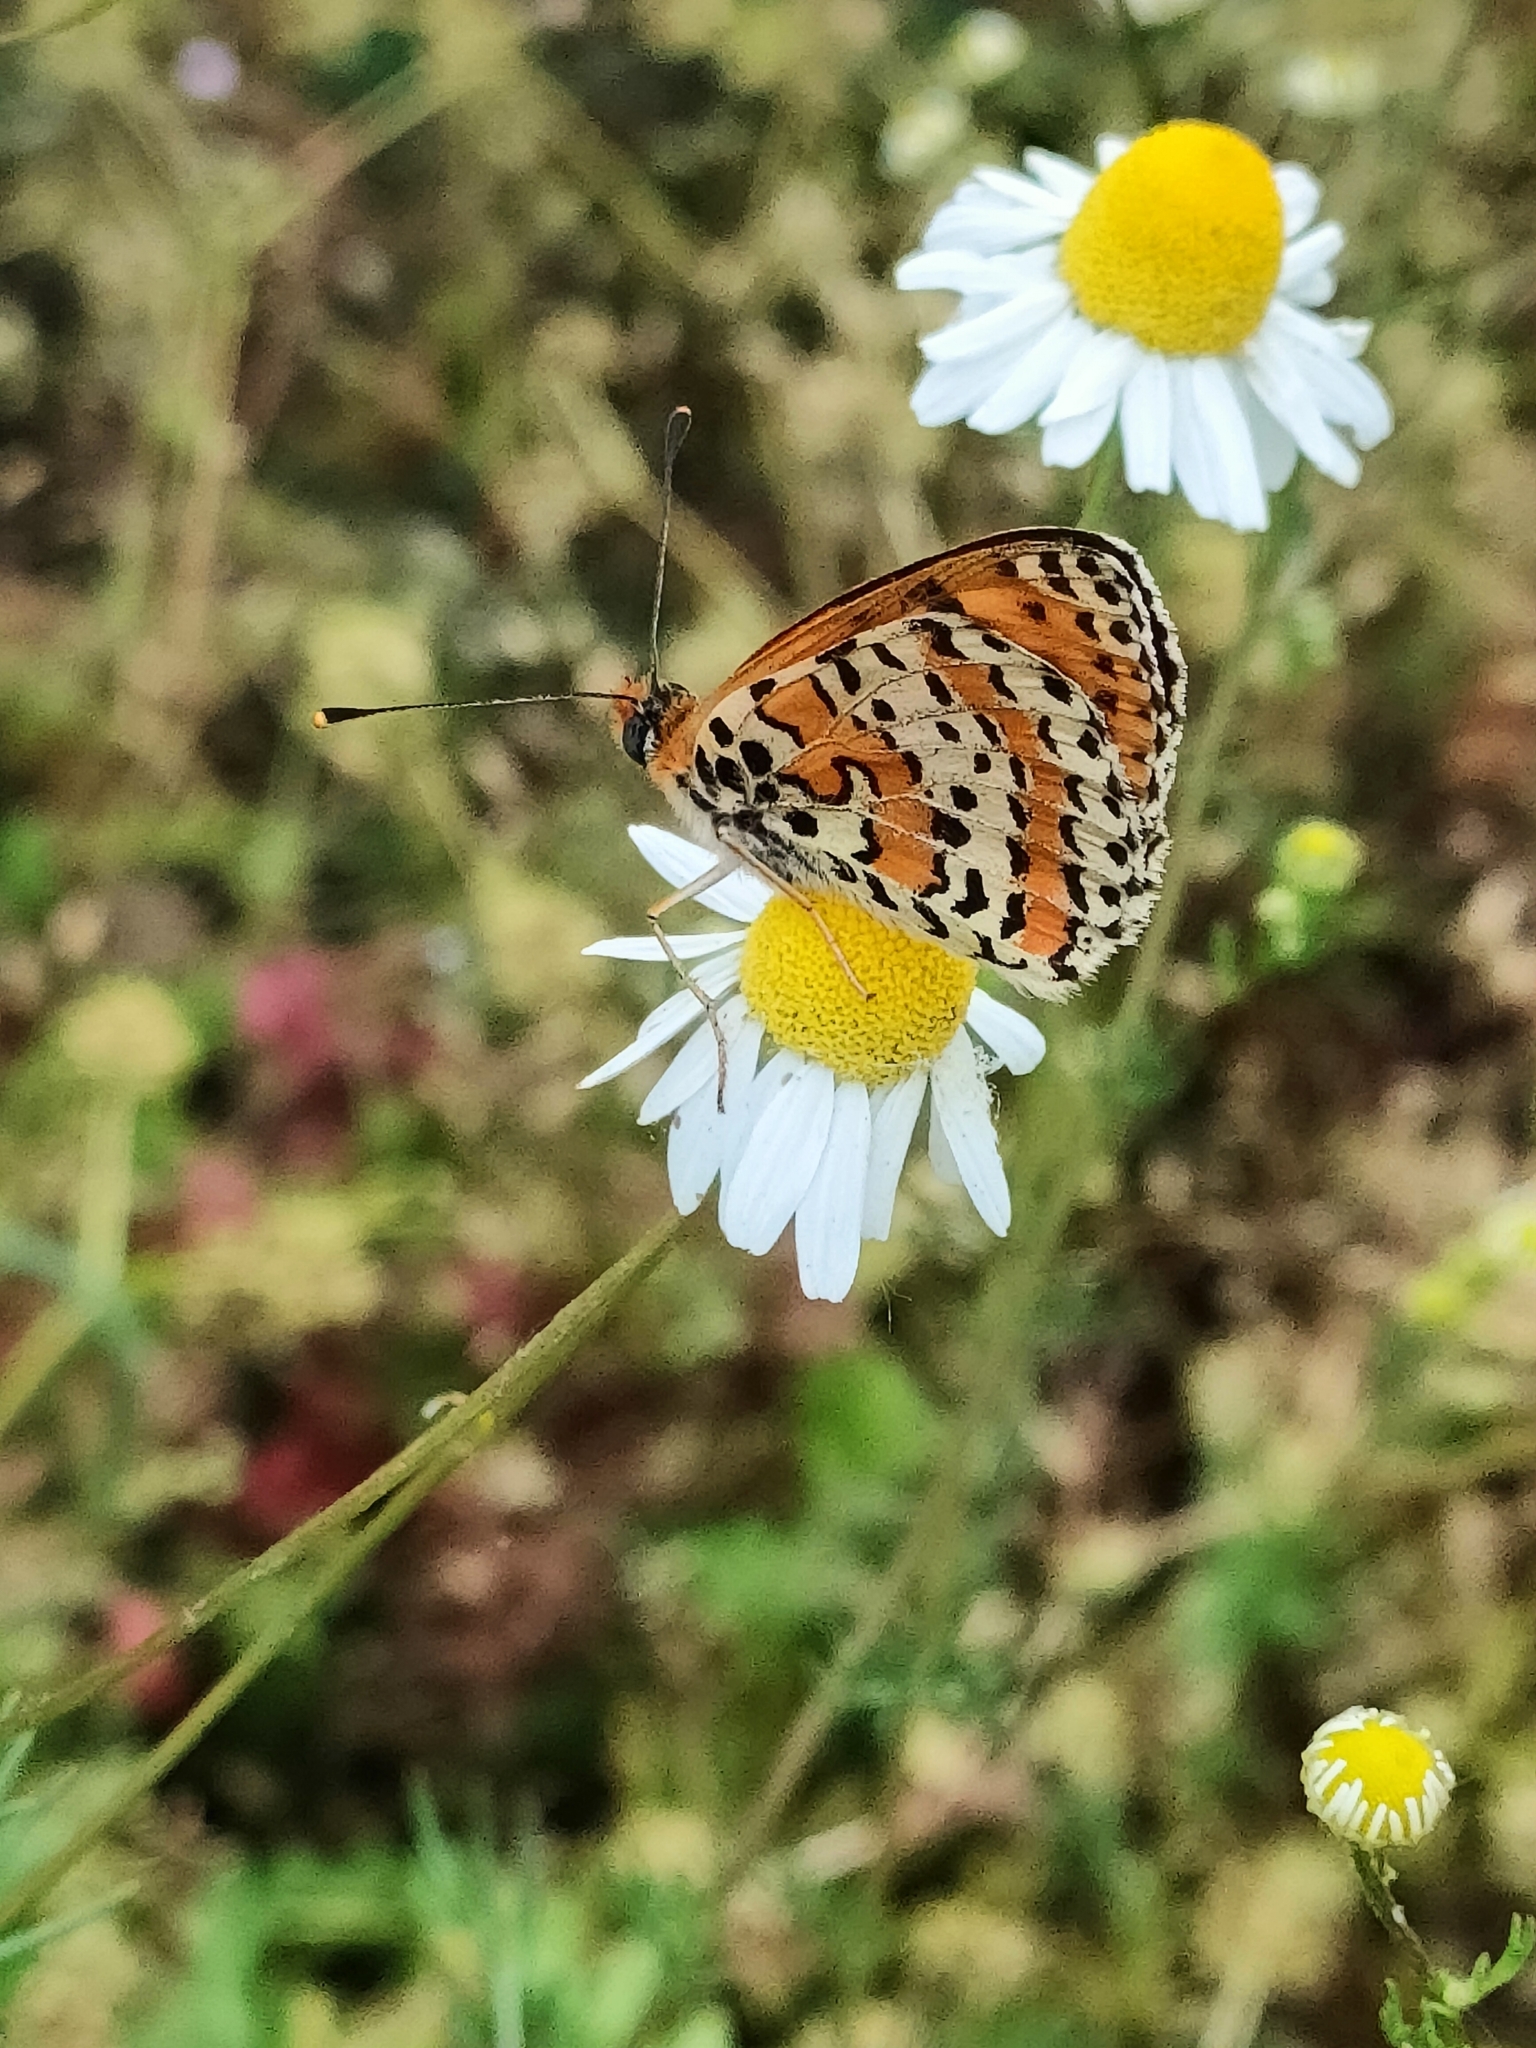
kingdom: Animalia
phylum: Arthropoda
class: Insecta
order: Lepidoptera
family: Nymphalidae
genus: Melitaea
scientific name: Melitaea didyma
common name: Spotted fritillary
